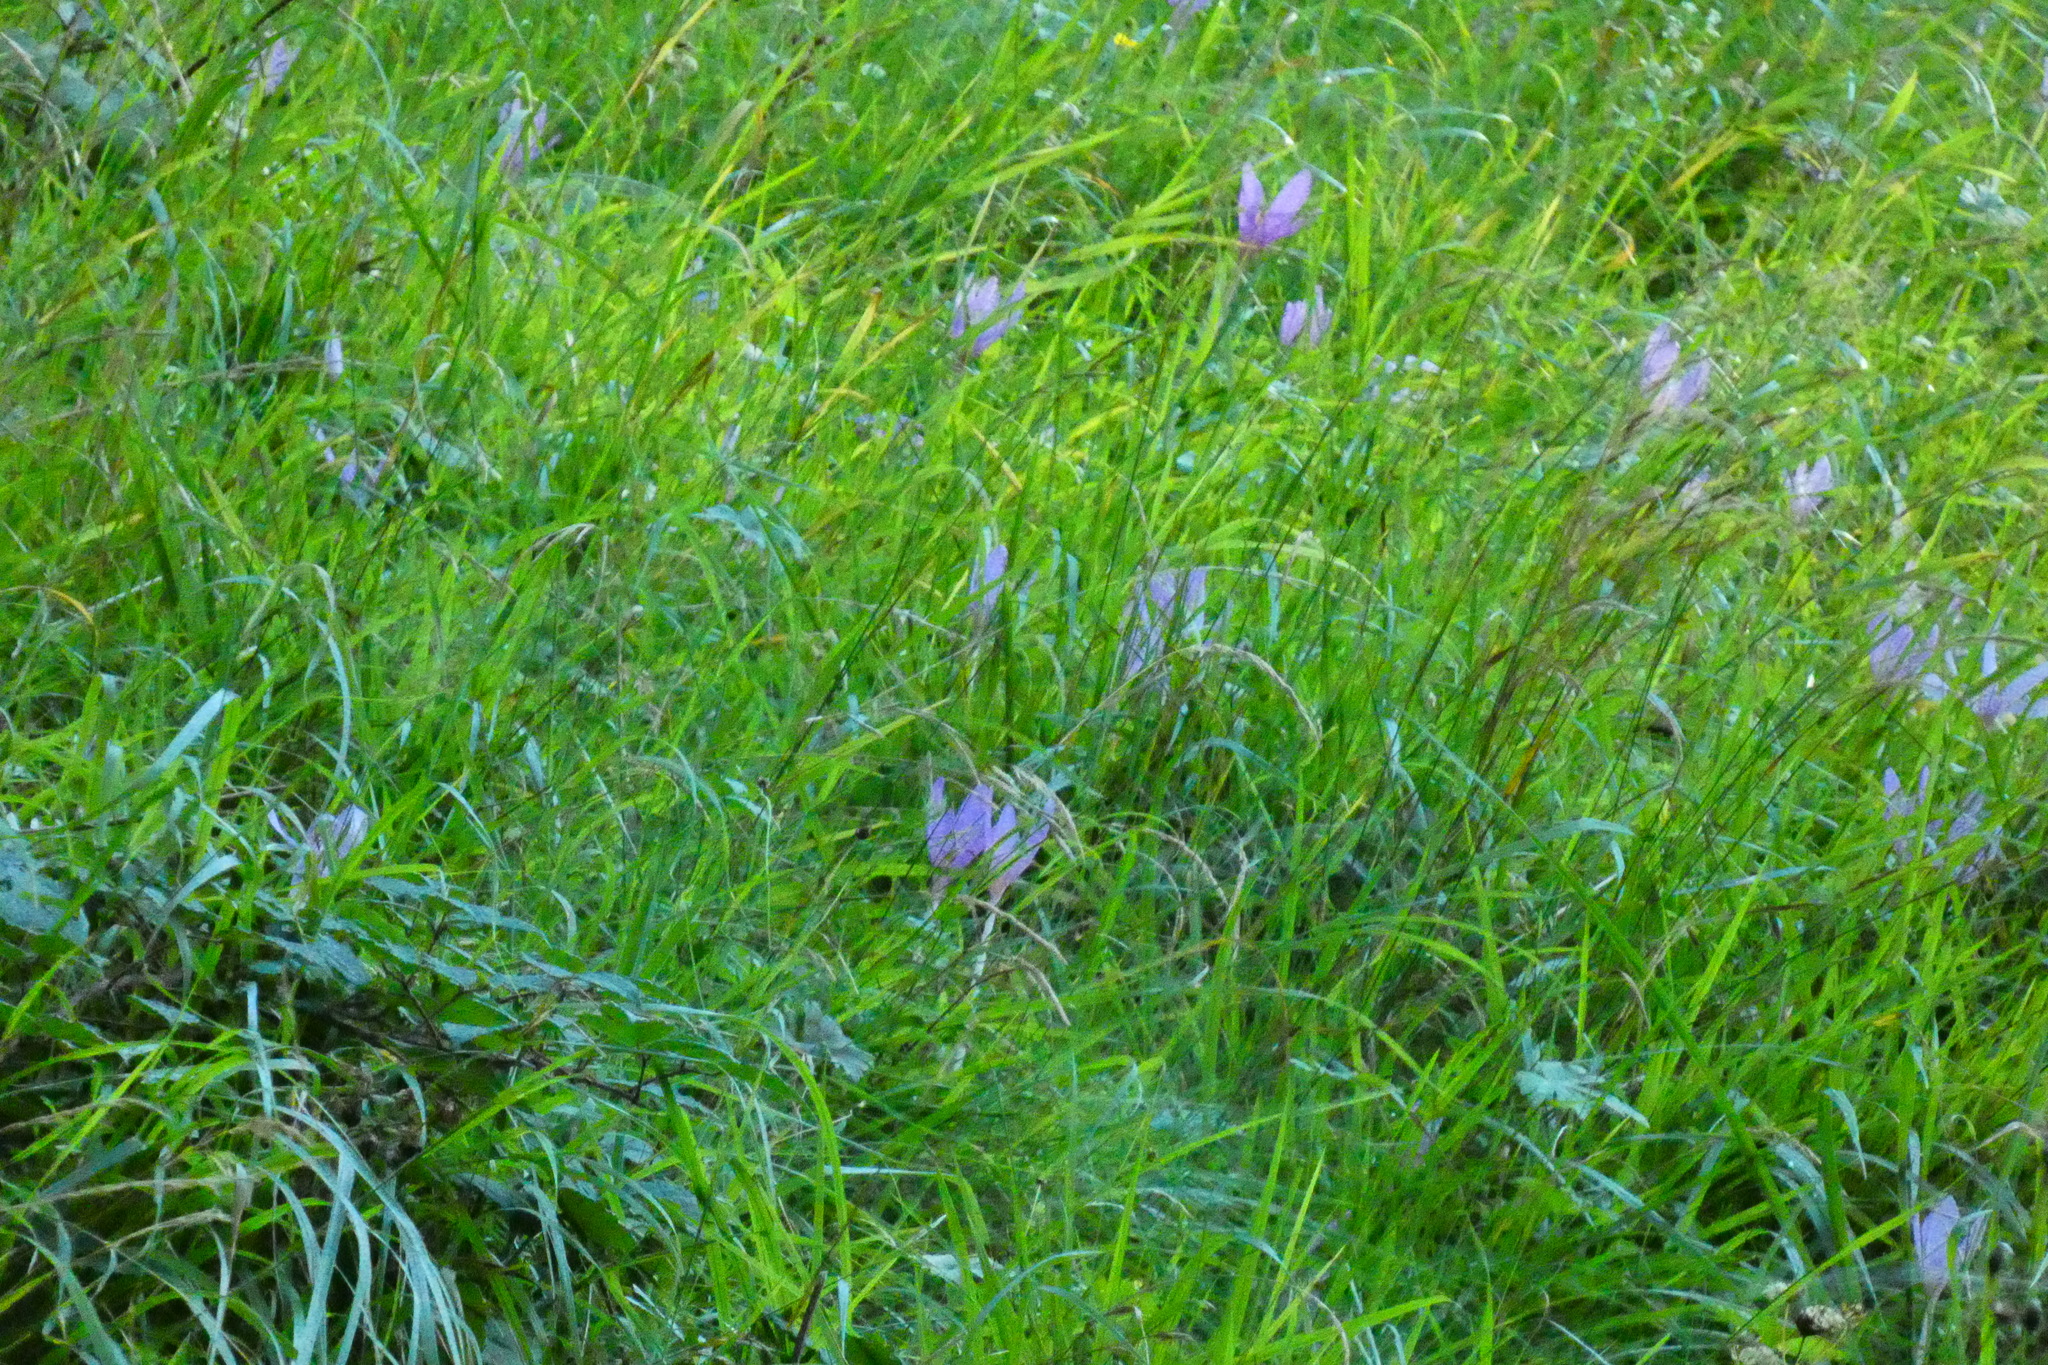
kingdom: Plantae
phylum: Tracheophyta
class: Liliopsida
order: Liliales
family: Colchicaceae
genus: Colchicum
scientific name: Colchicum autumnale
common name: Autumn crocus
